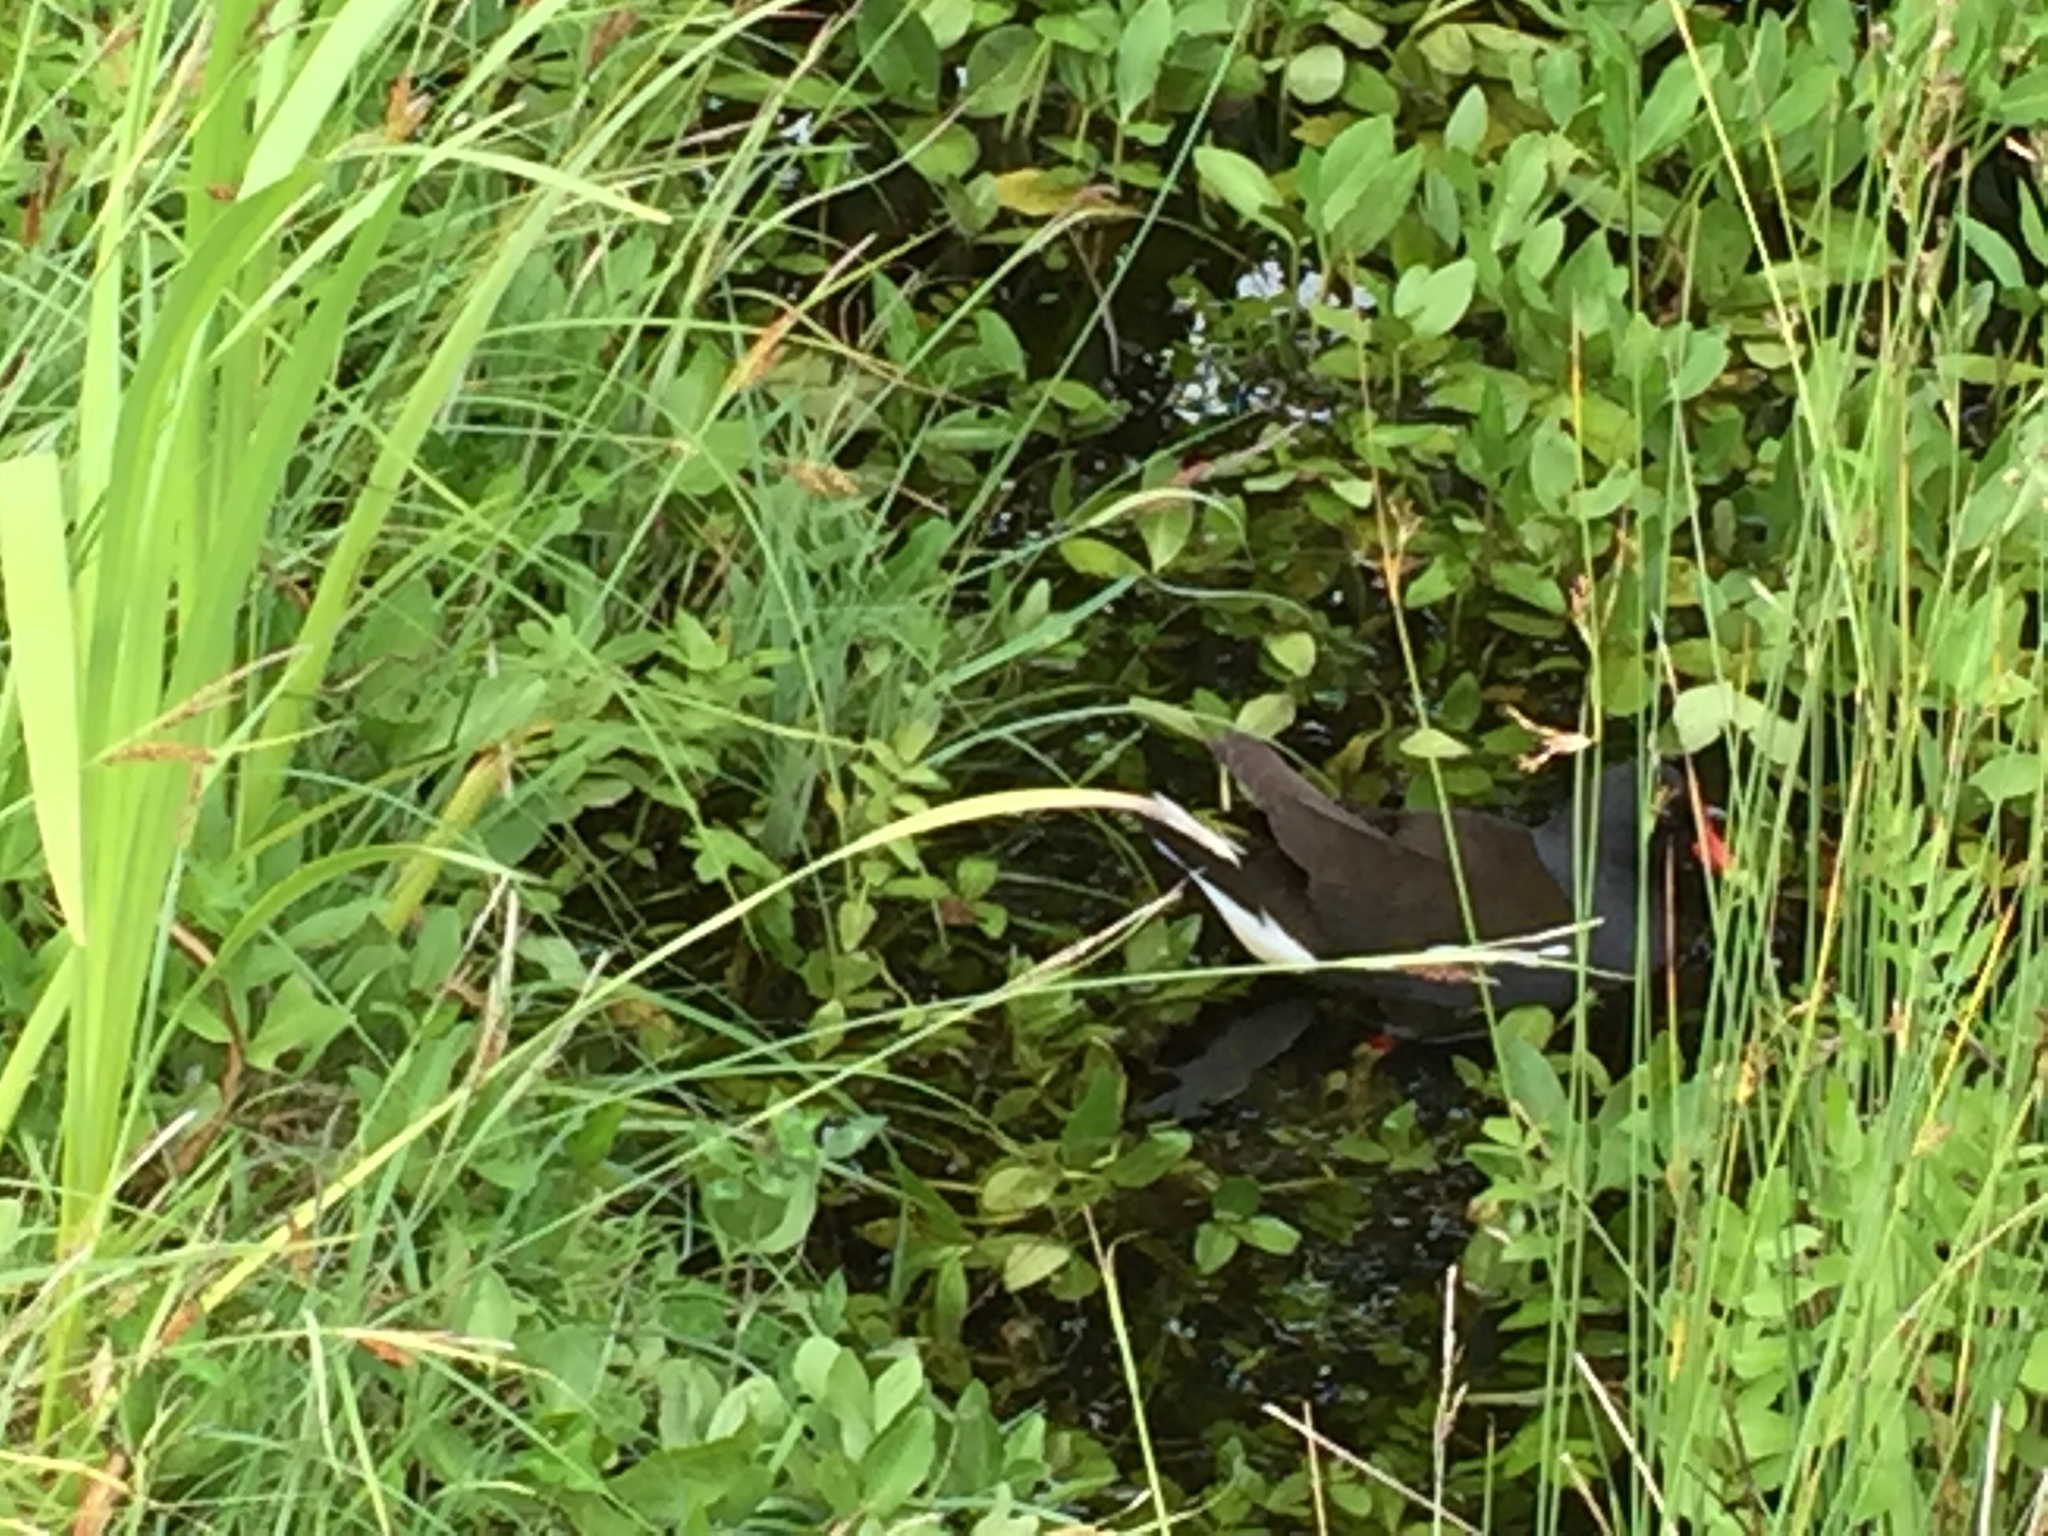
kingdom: Animalia
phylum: Chordata
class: Aves
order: Gruiformes
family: Rallidae
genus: Gallinula
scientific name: Gallinula chloropus
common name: Common moorhen
